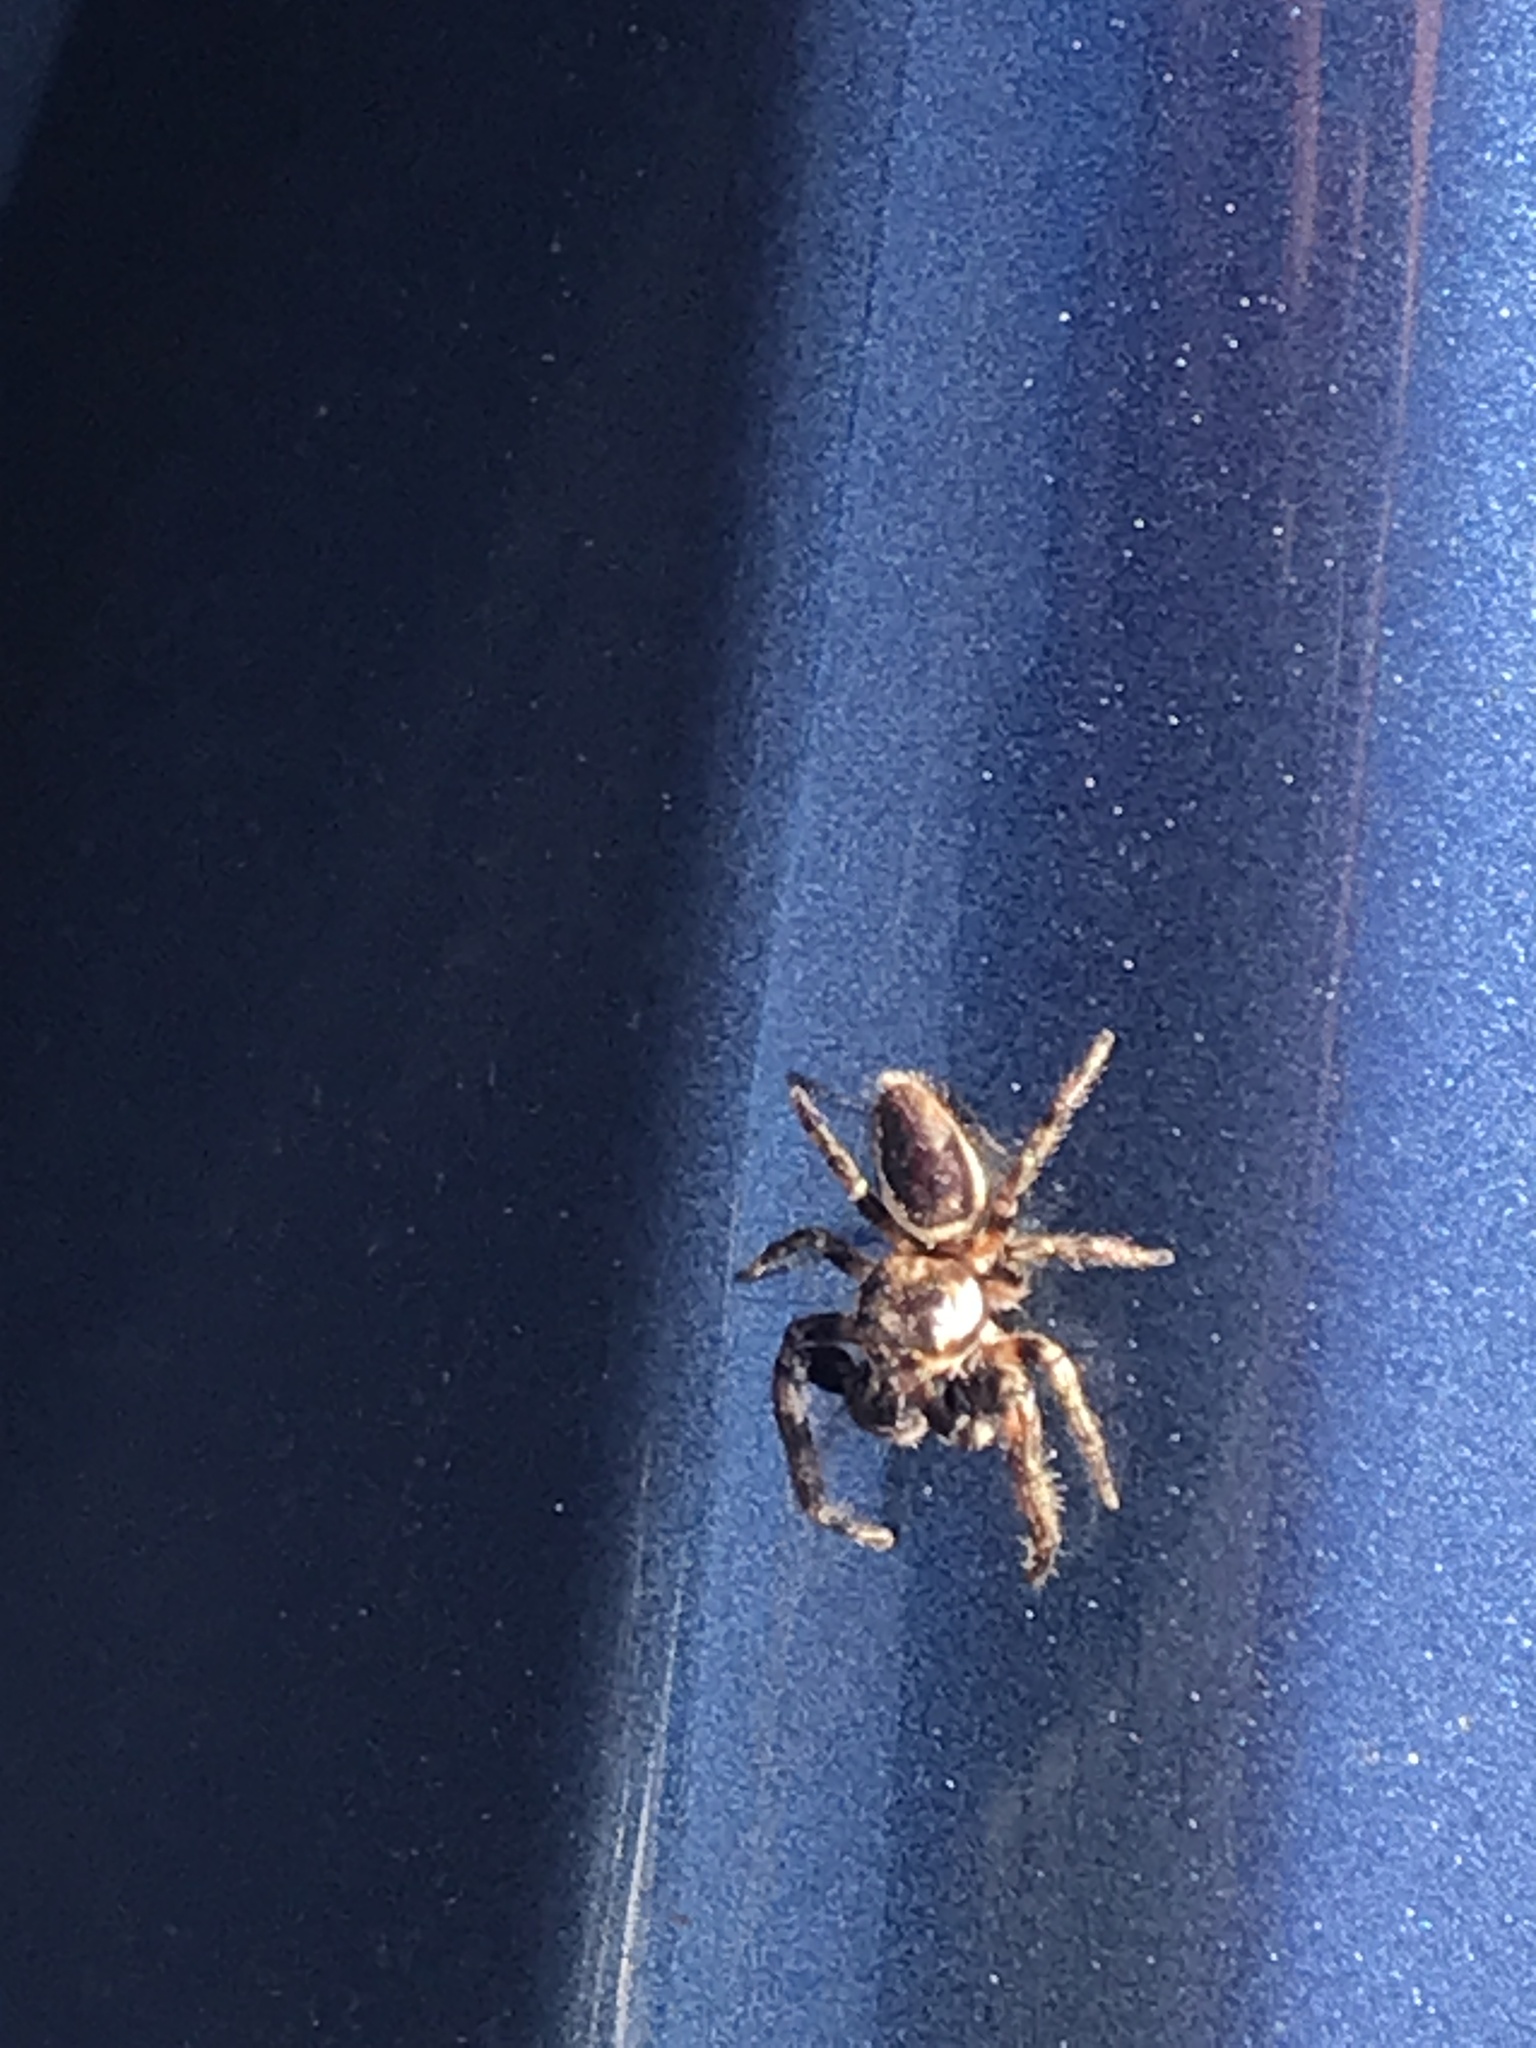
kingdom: Animalia
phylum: Arthropoda
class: Arachnida
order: Araneae
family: Salticidae
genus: Eris
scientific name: Eris militaris
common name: Bronze jumper
